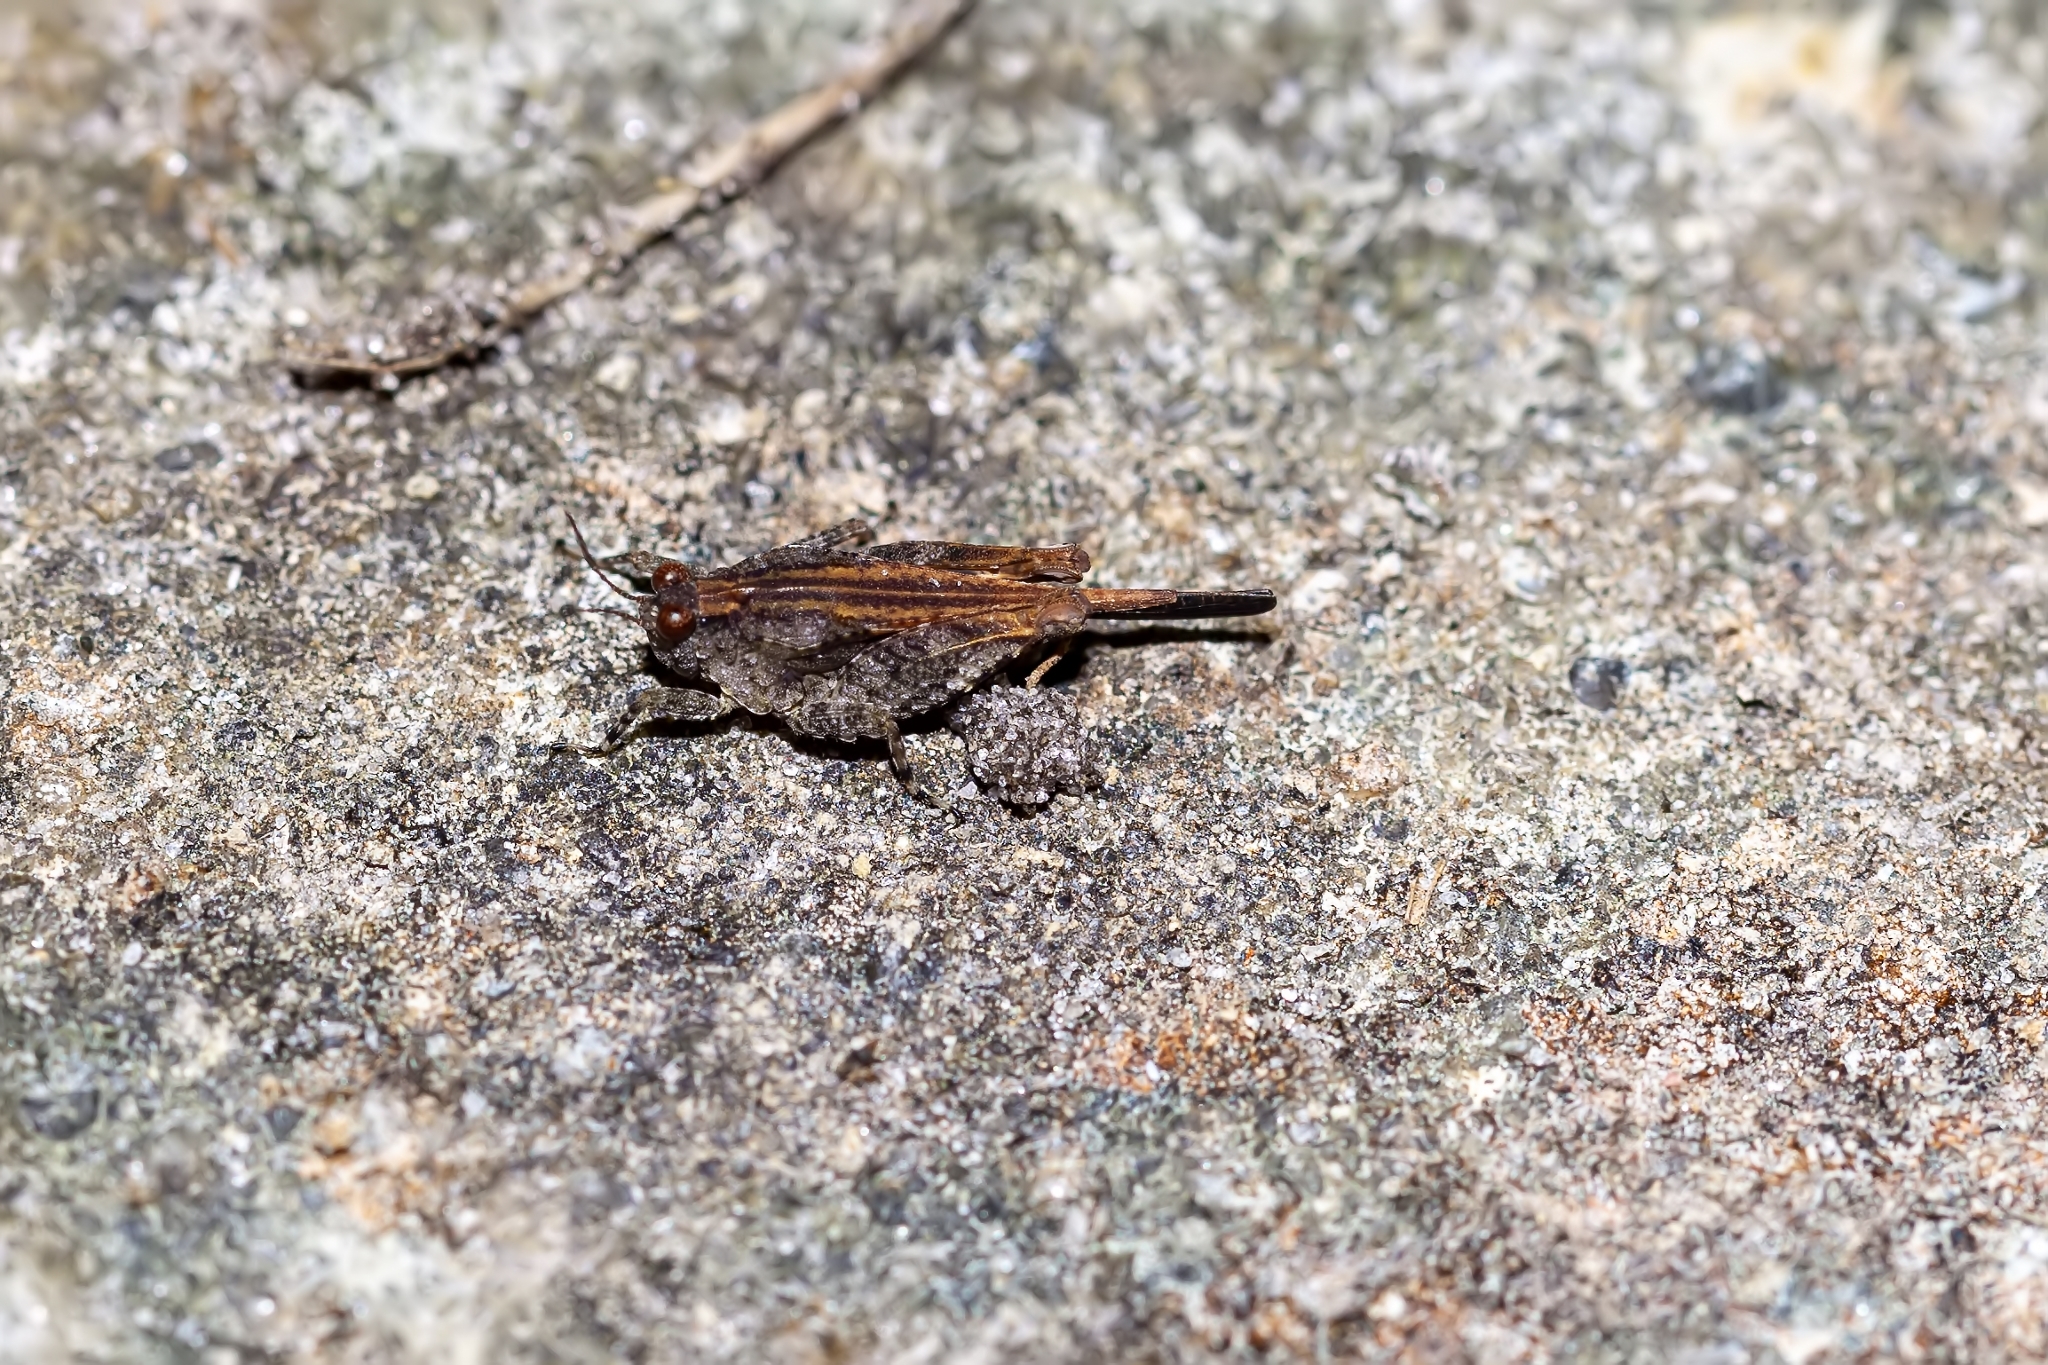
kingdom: Animalia
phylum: Arthropoda
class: Insecta
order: Orthoptera
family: Tetrigidae
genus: Paratettix
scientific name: Paratettix cucullatus
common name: Hooded grouse locust
